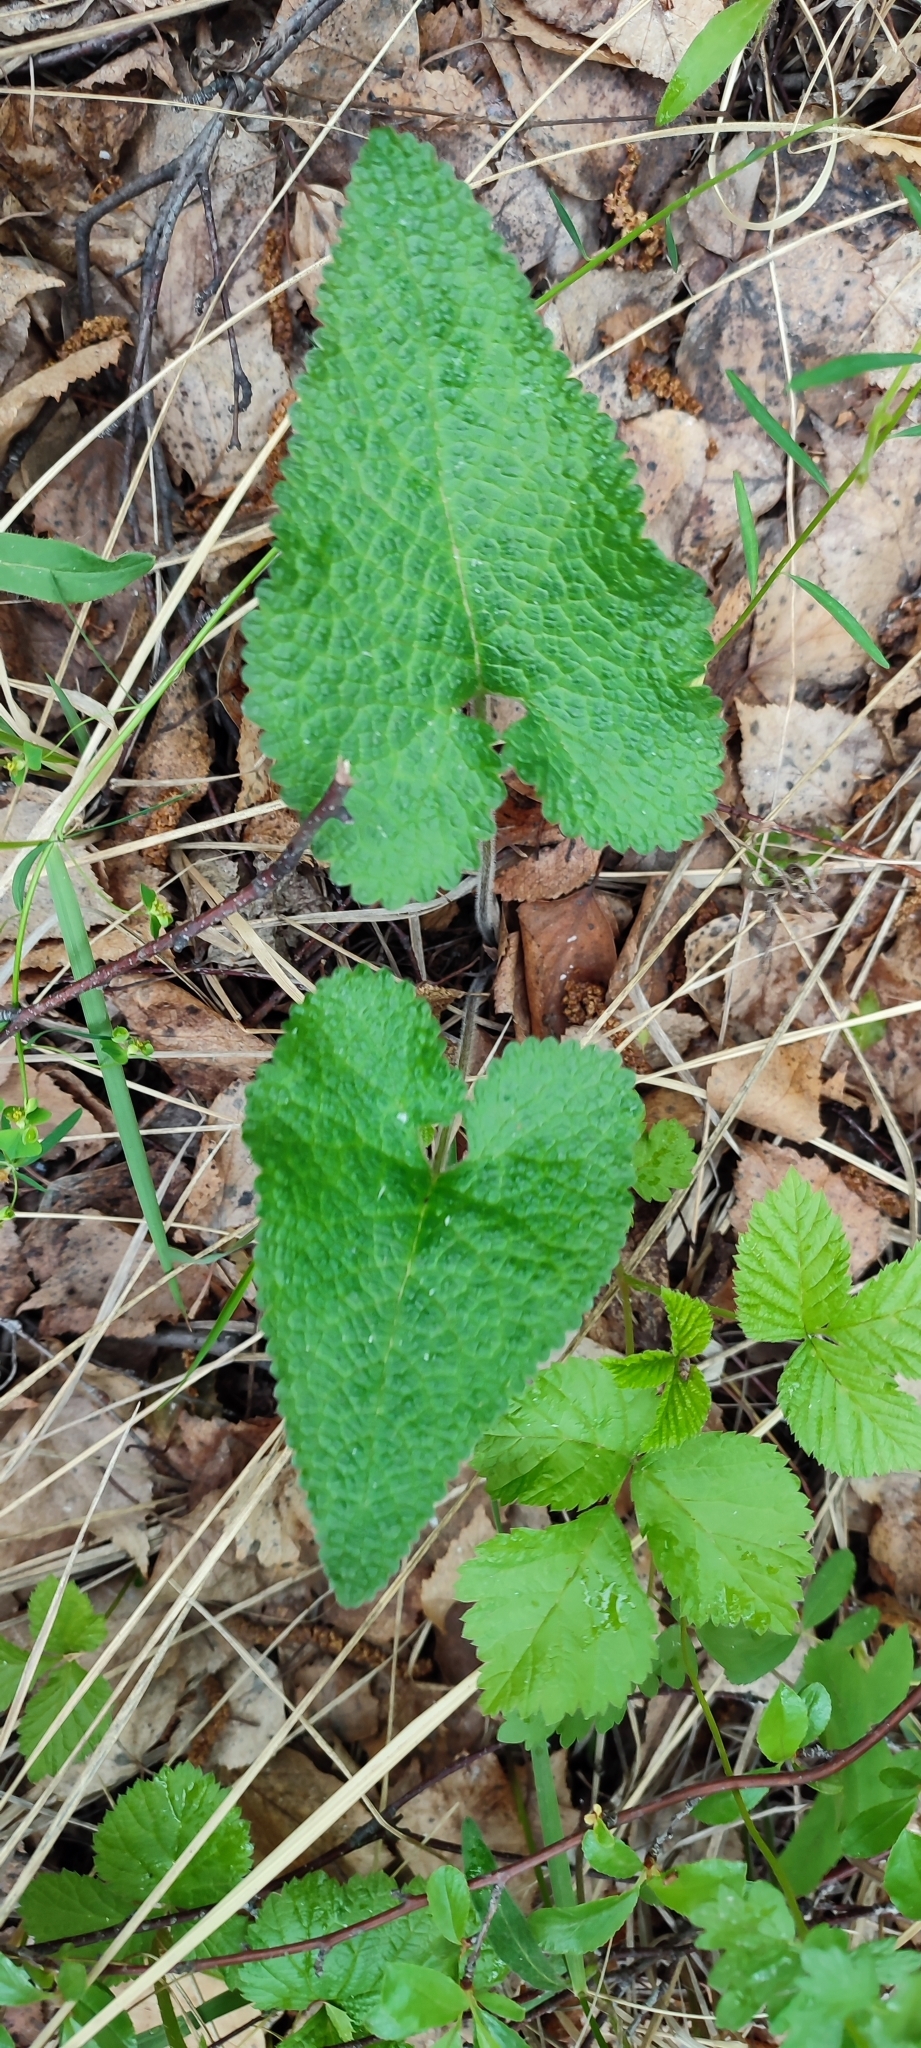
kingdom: Plantae
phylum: Tracheophyta
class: Magnoliopsida
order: Lamiales
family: Lamiaceae
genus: Phlomoides
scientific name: Phlomoides tuberosa
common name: Tuberous jerusalem sage
